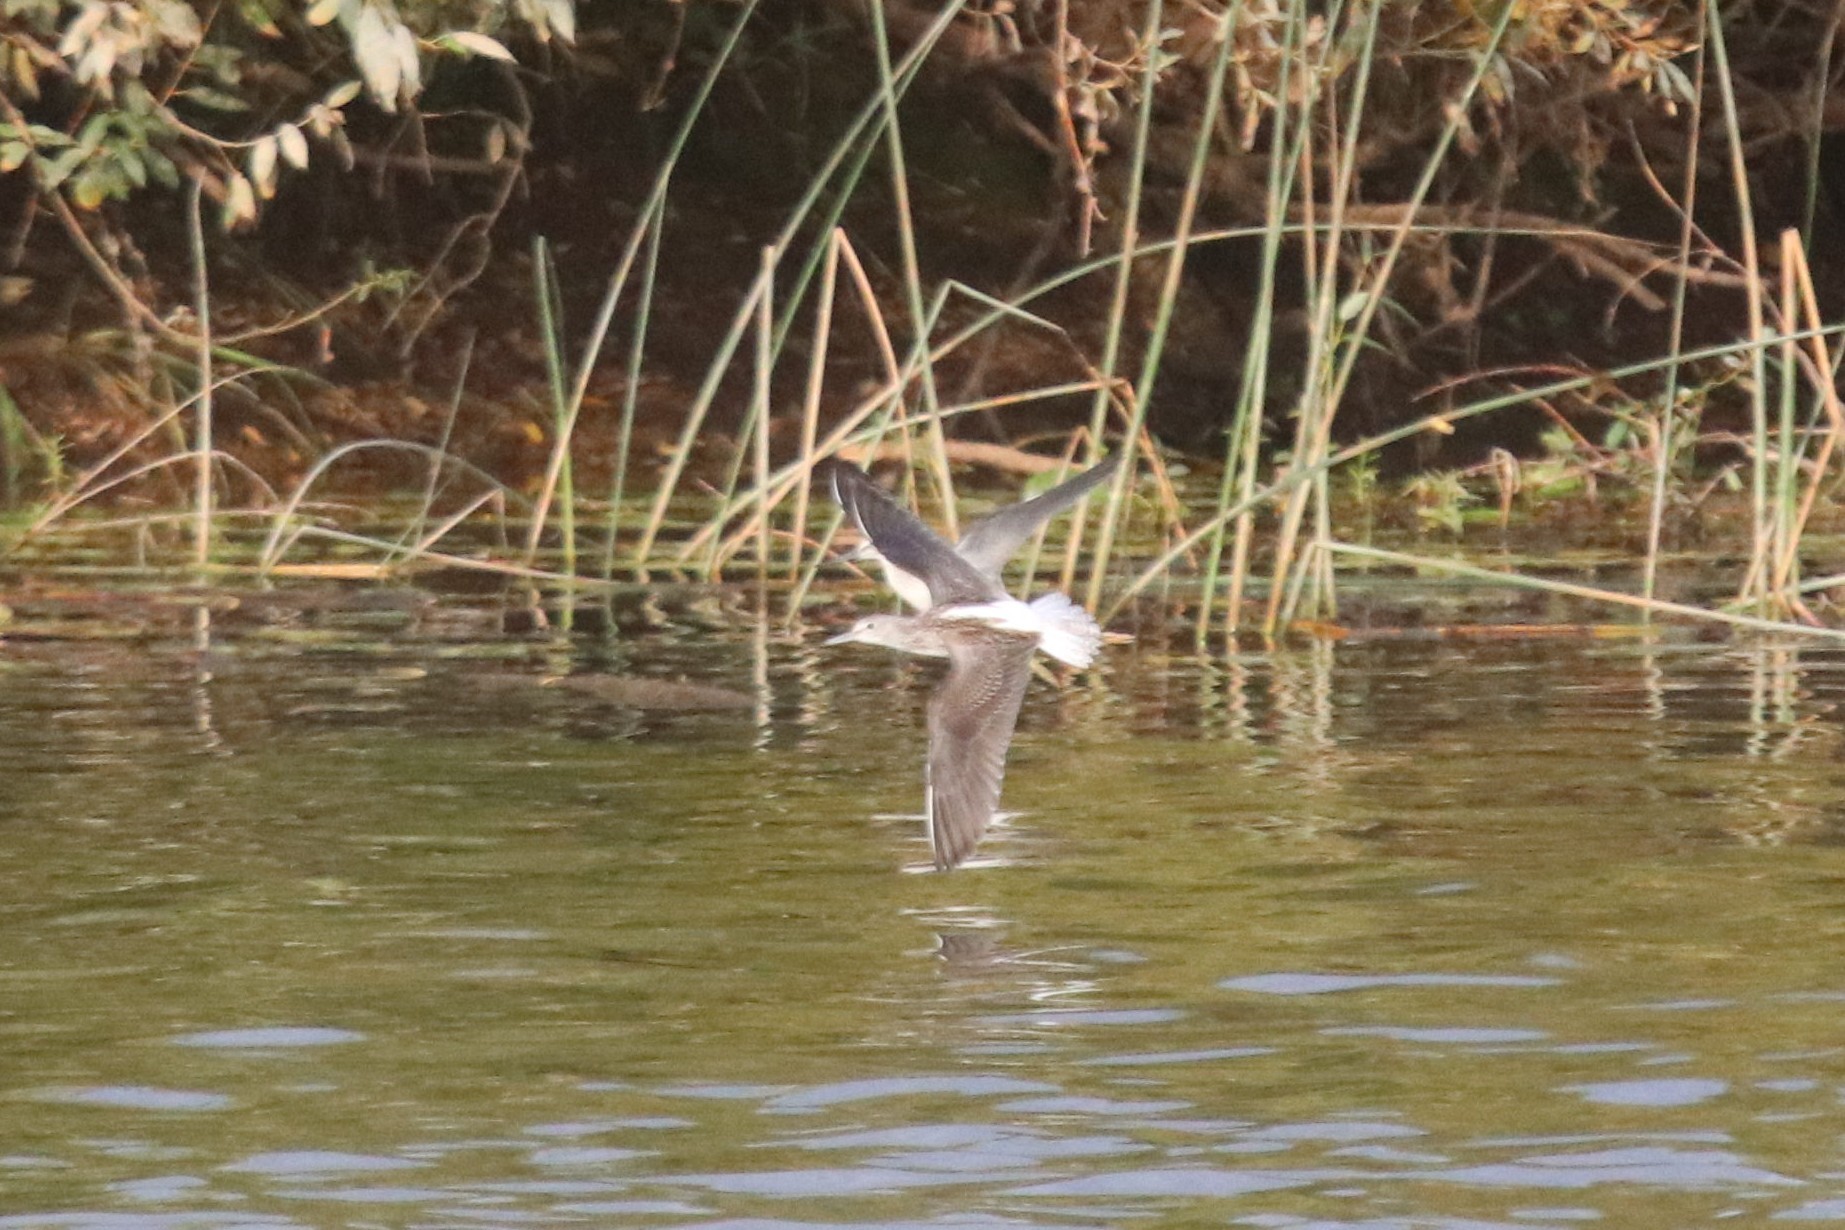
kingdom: Animalia
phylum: Chordata
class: Aves
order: Charadriiformes
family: Scolopacidae
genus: Tringa
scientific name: Tringa nebularia
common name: Common greenshank
